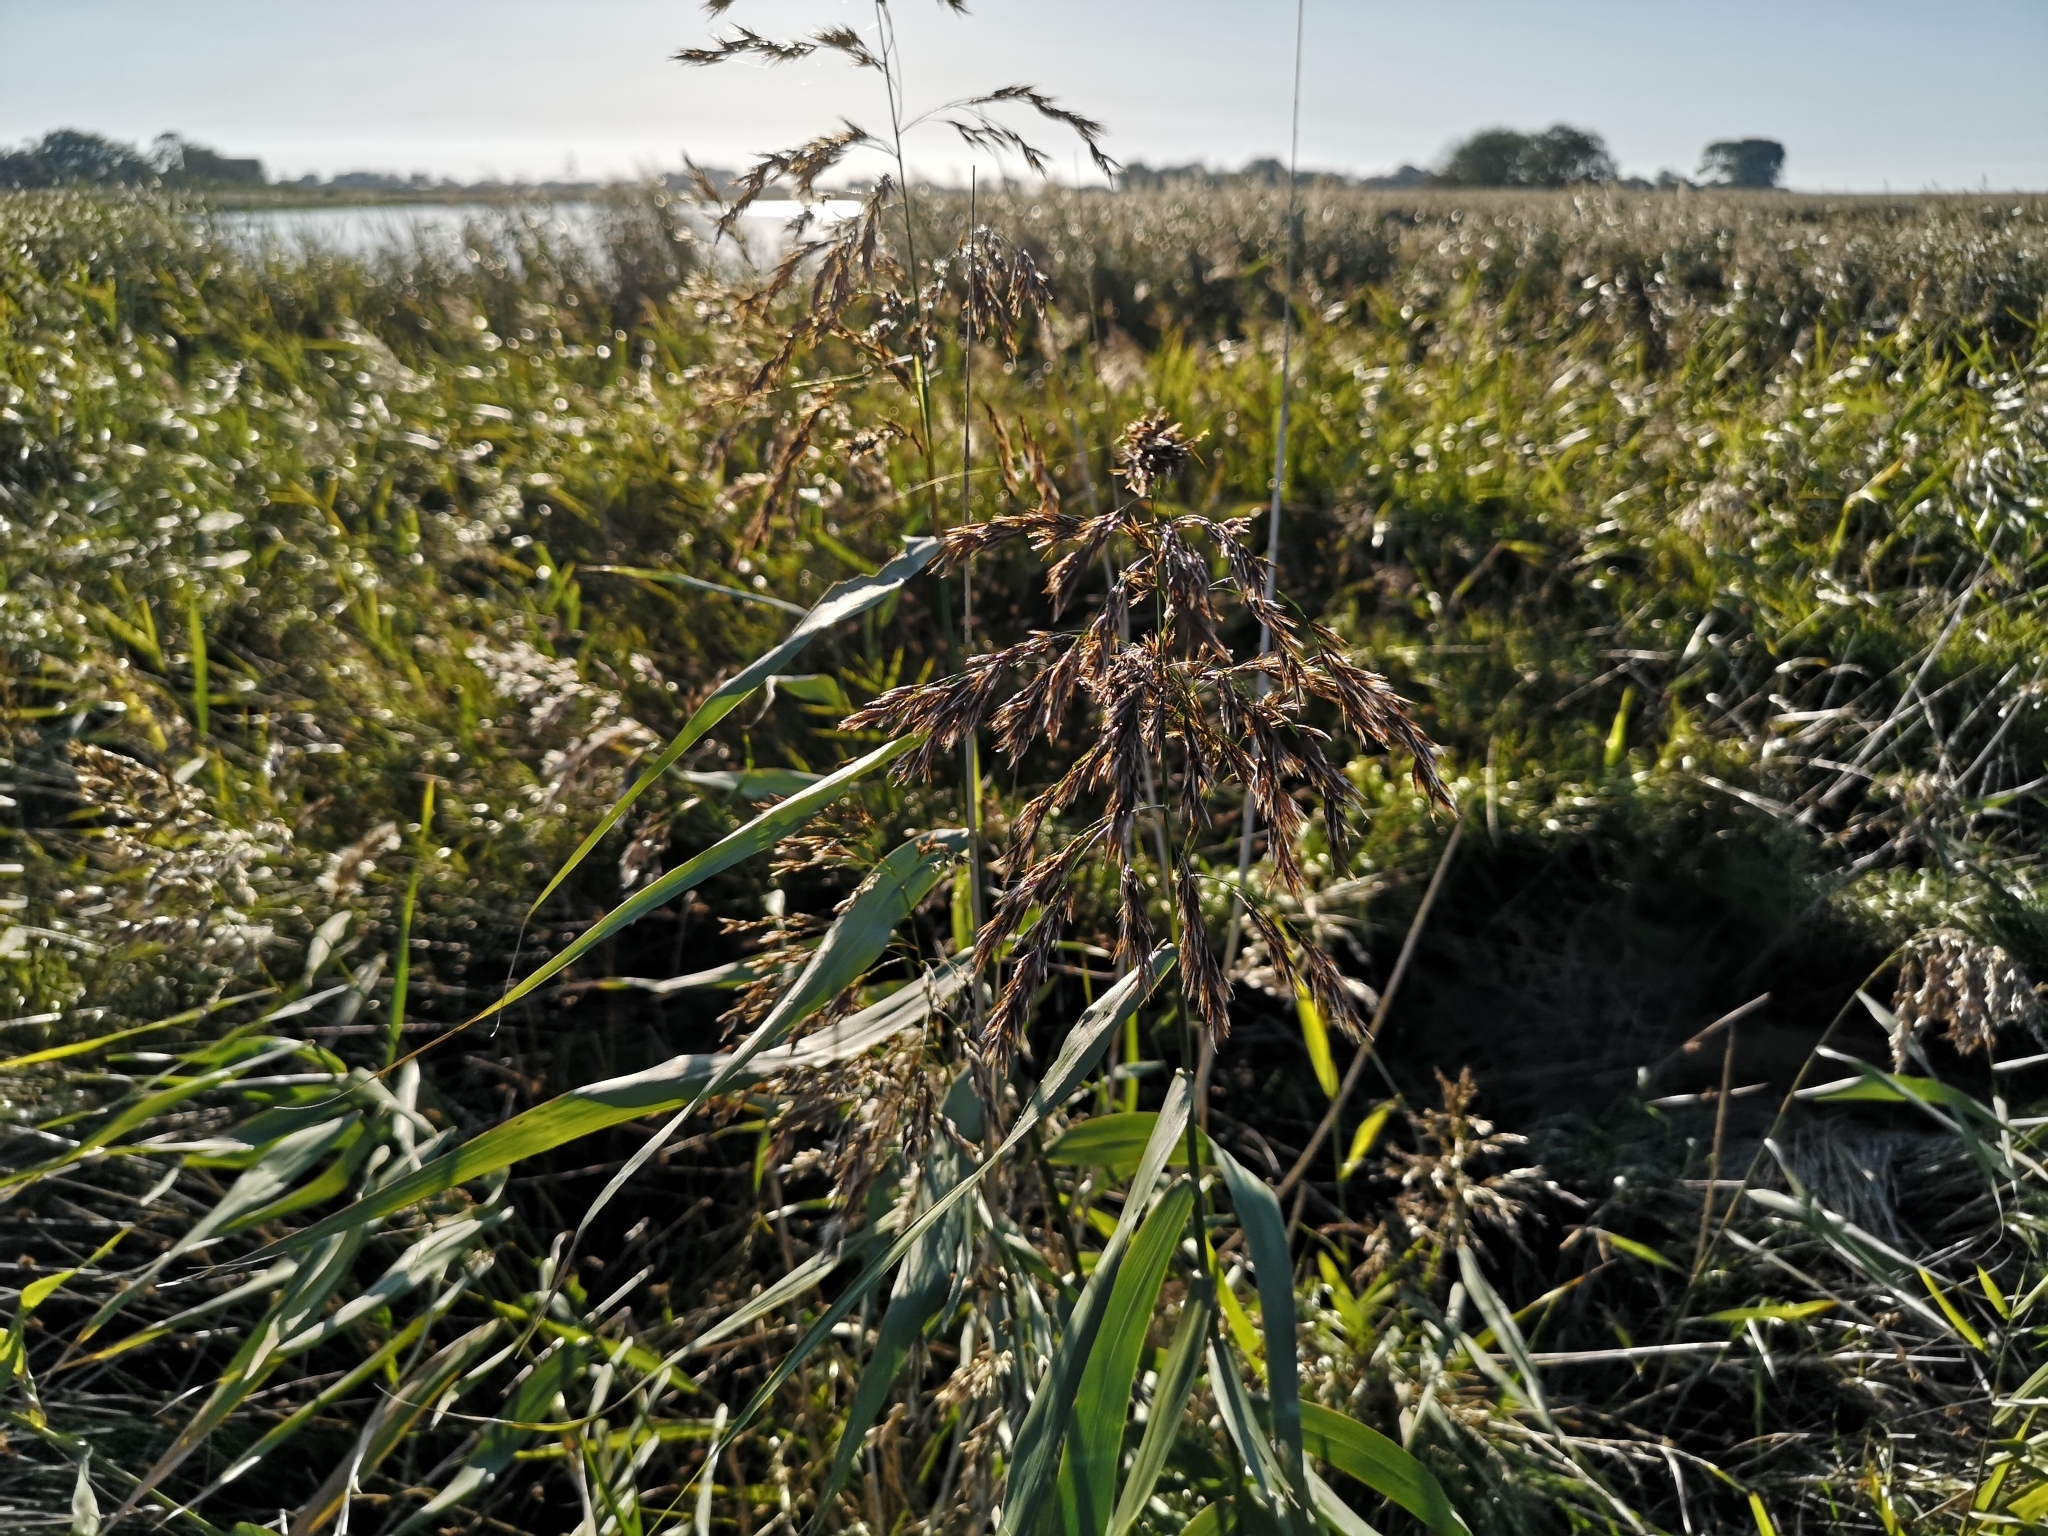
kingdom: Plantae
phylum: Tracheophyta
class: Liliopsida
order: Poales
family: Poaceae
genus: Phragmites
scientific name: Phragmites australis
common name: Common reed
